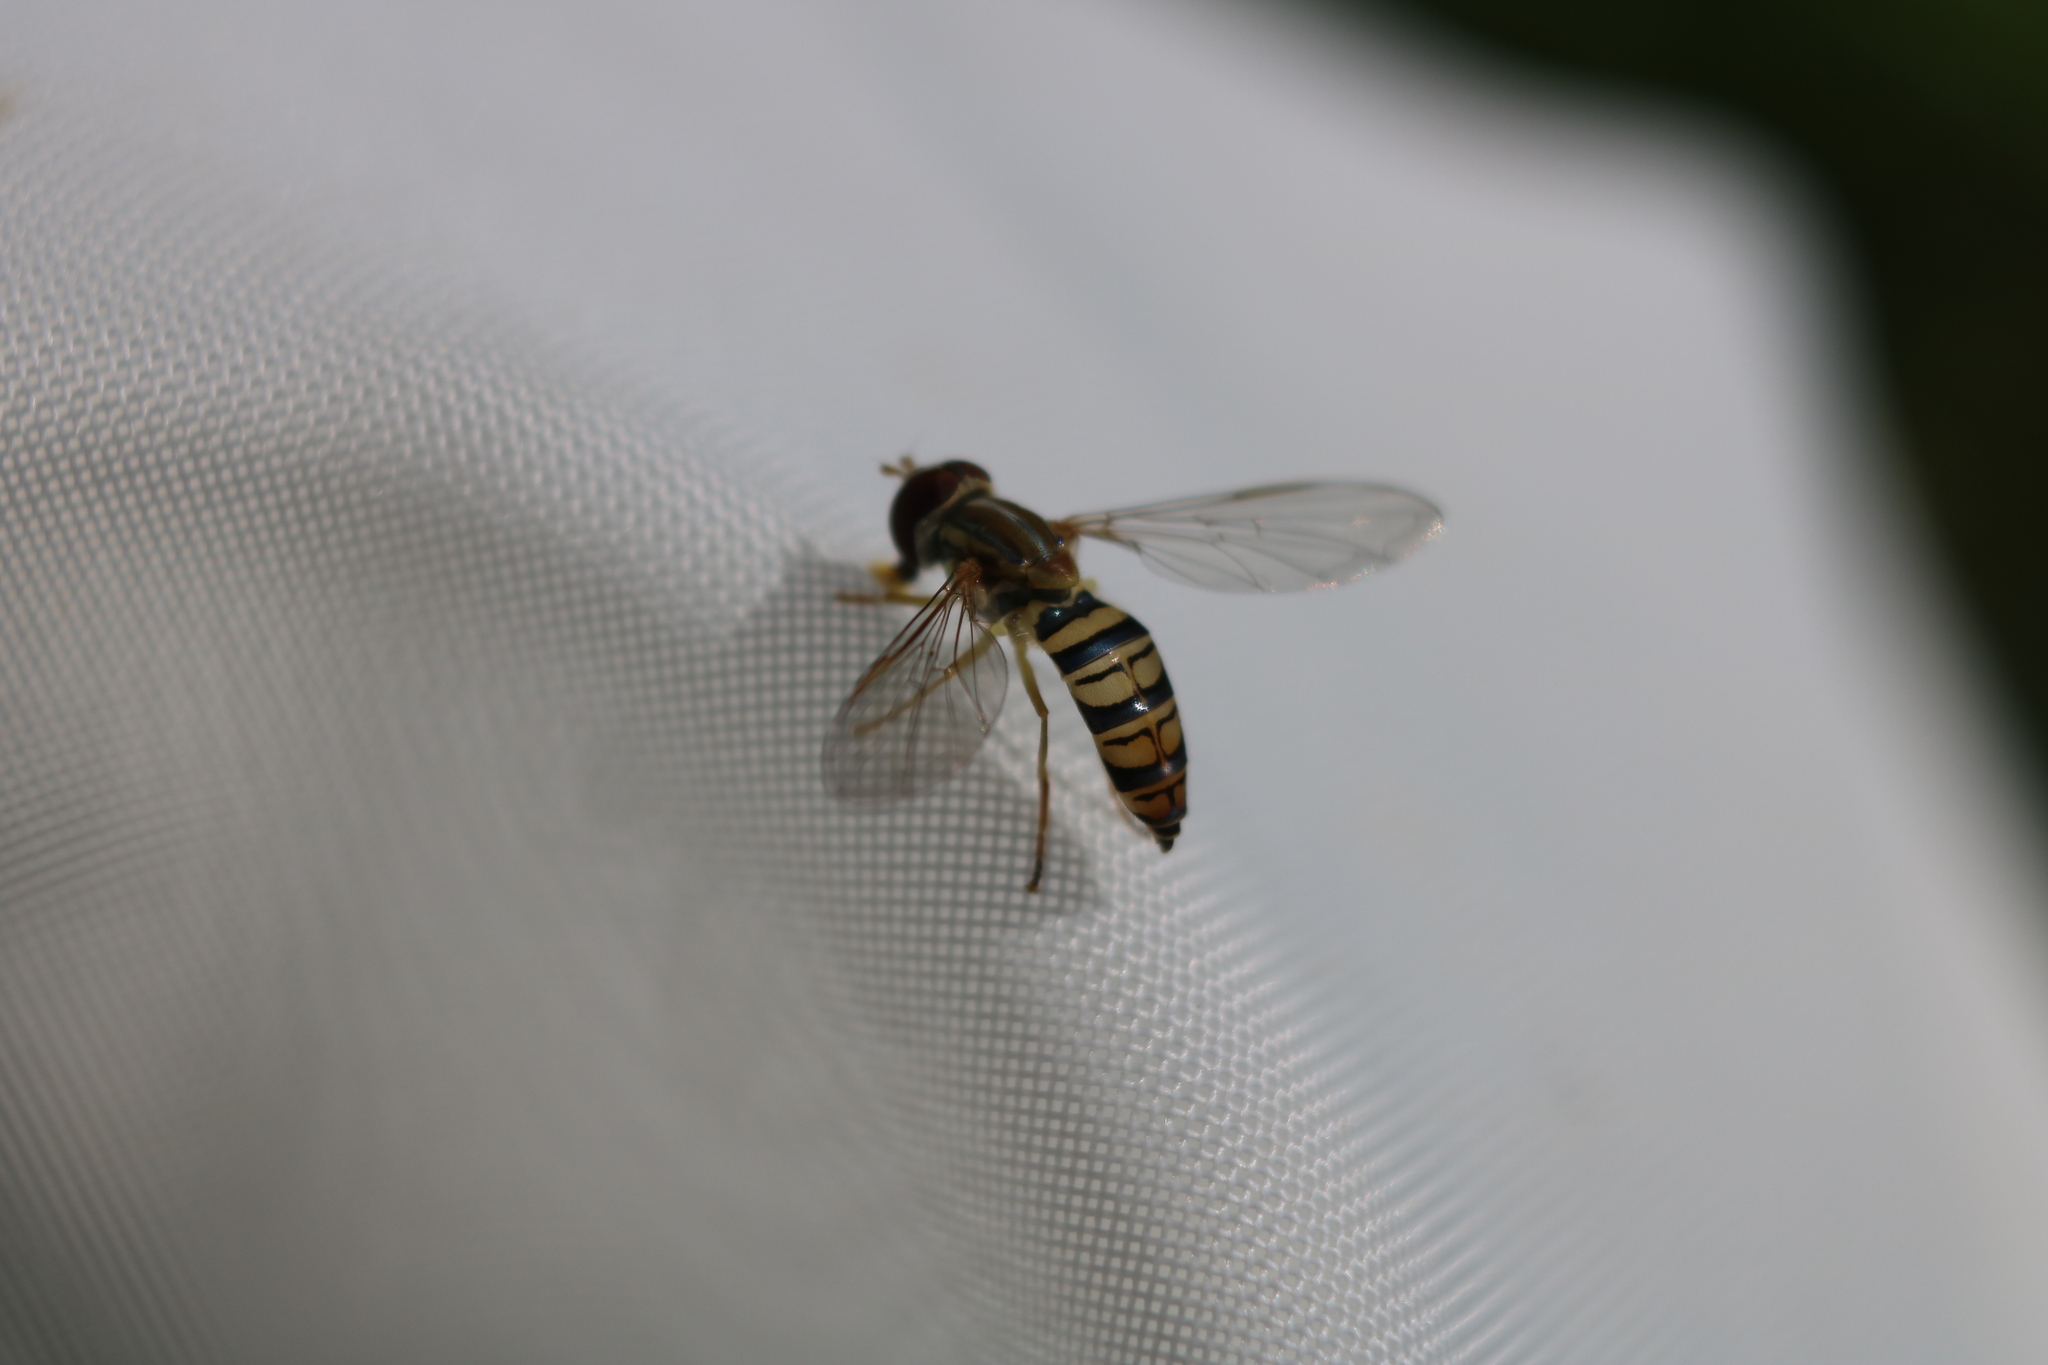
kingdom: Animalia
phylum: Arthropoda
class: Insecta
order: Diptera
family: Syrphidae
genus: Toxomerus
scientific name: Toxomerus politus
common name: Maize calligrapher
